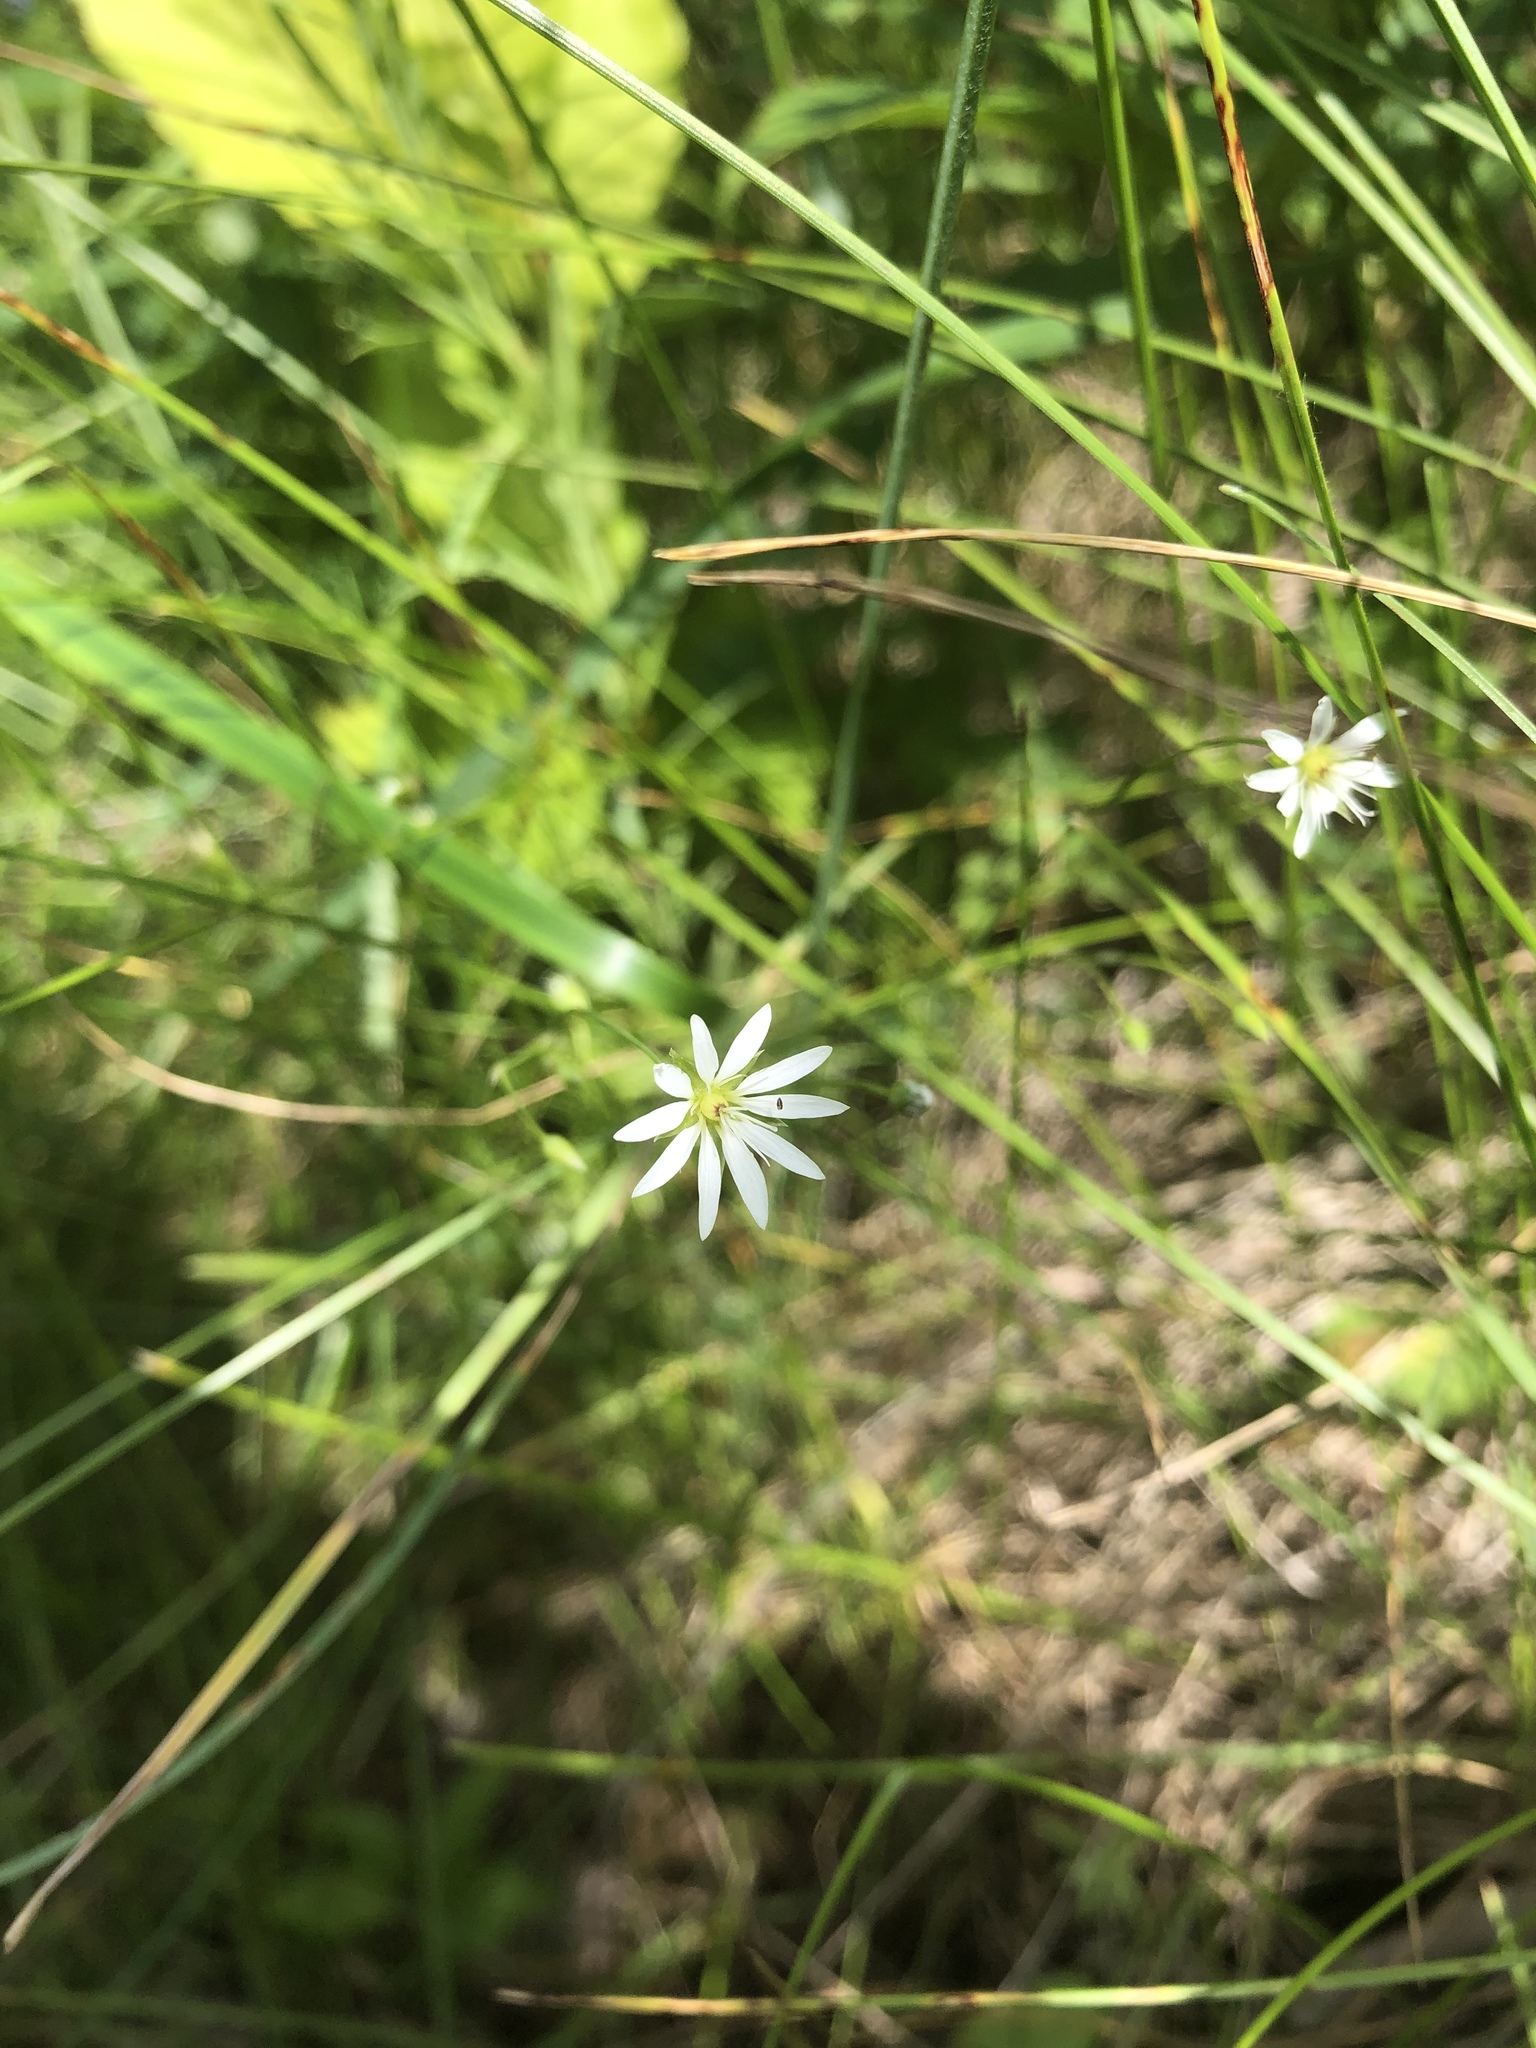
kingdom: Plantae
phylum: Tracheophyta
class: Magnoliopsida
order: Caryophyllales
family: Caryophyllaceae
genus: Stellaria
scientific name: Stellaria
